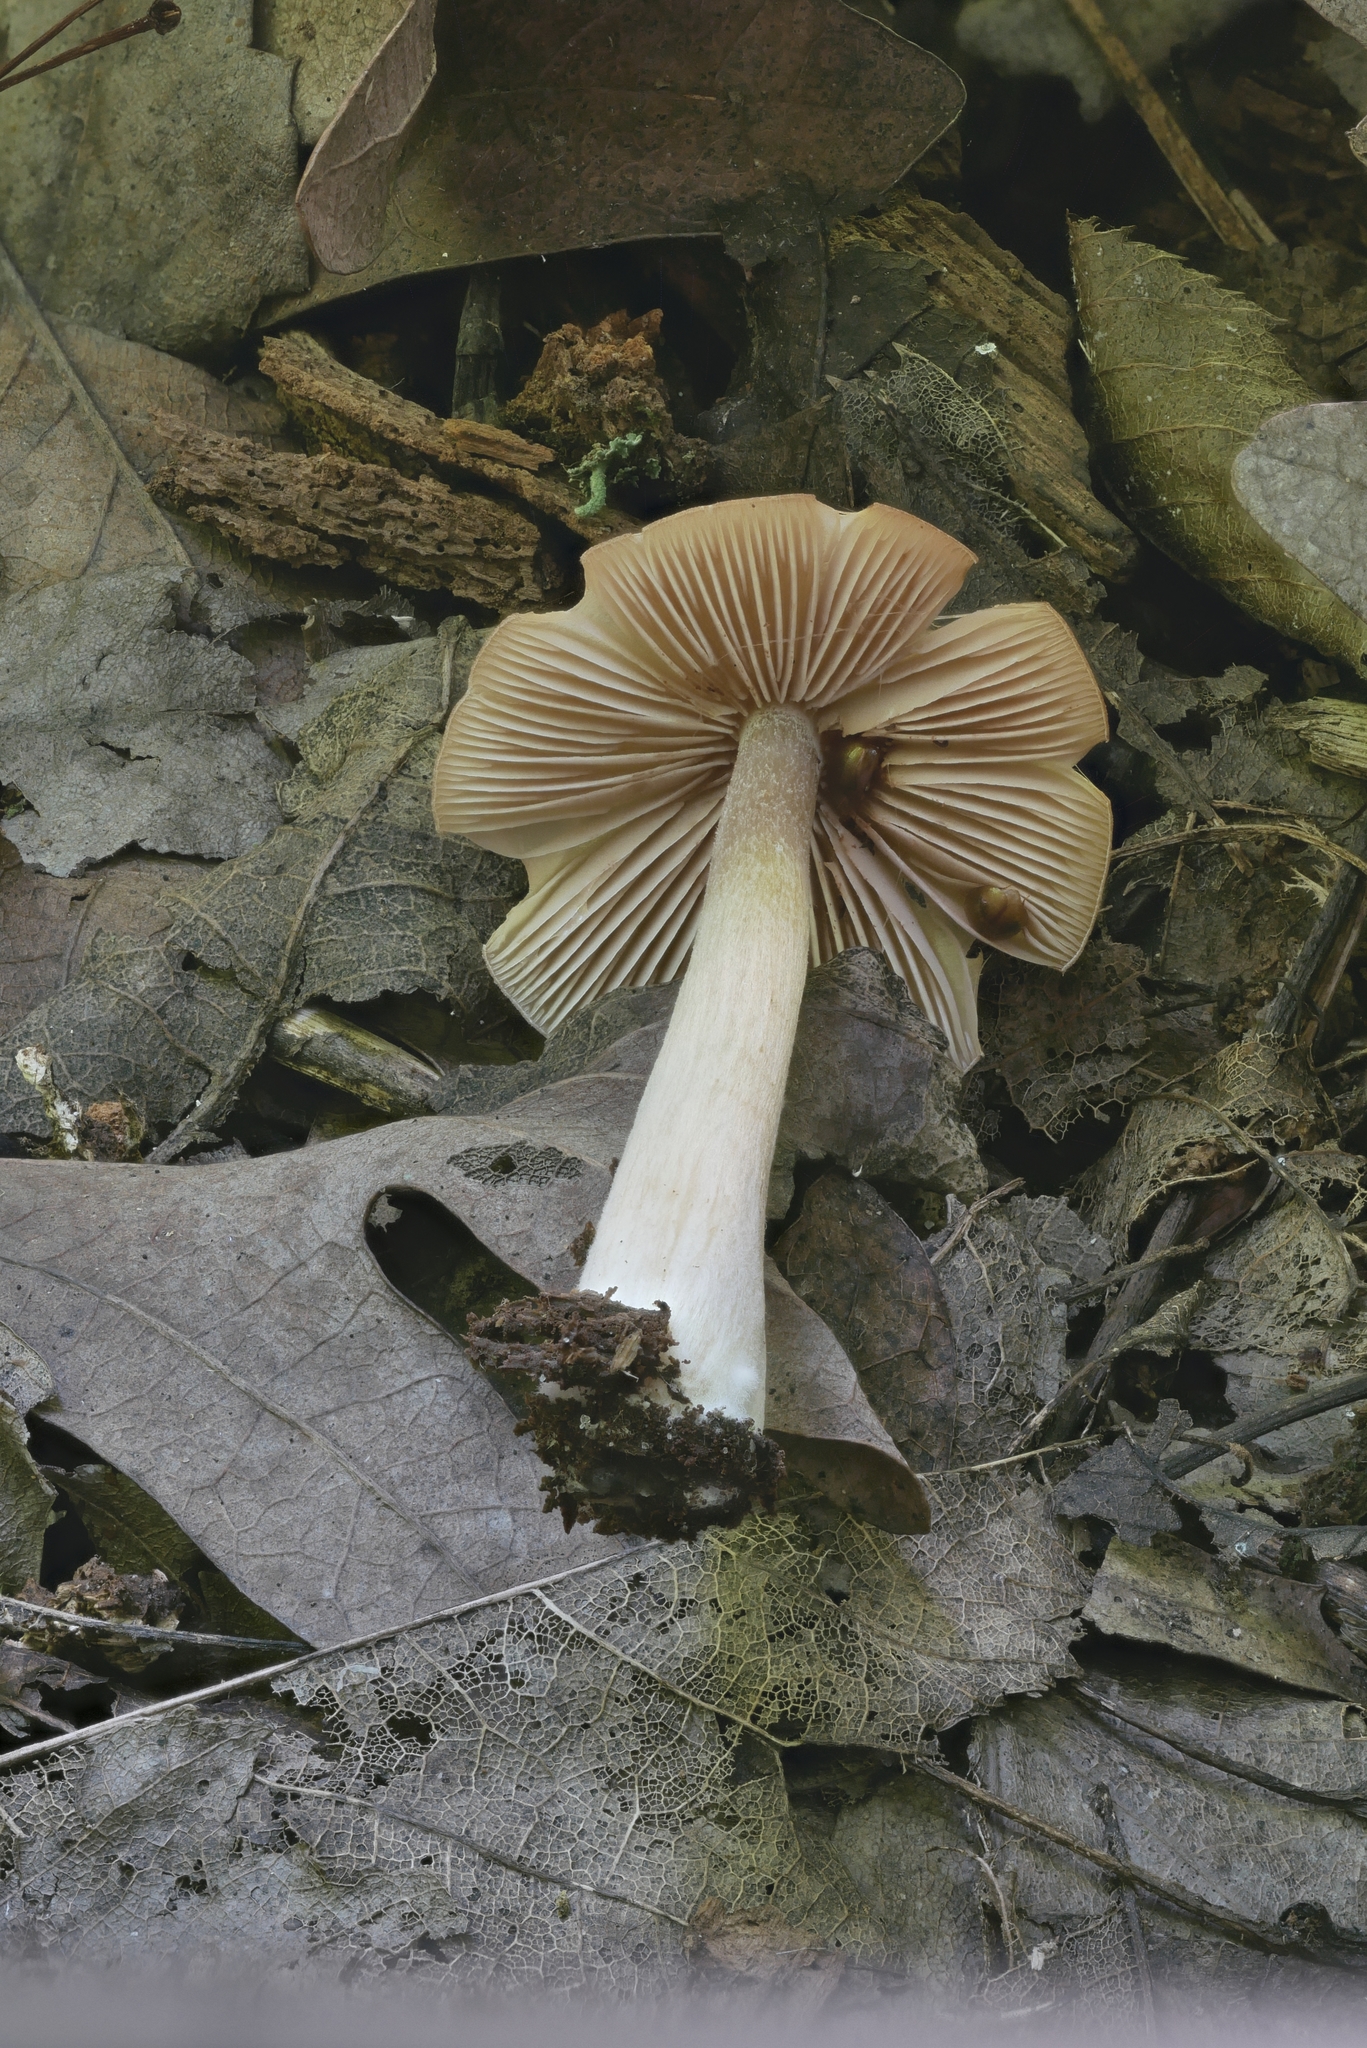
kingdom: Fungi
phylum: Basidiomycota
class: Agaricomycetes
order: Agaricales
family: Entolomataceae
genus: Entoloma
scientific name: Entoloma strictius
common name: Straight-stalked entoloma
